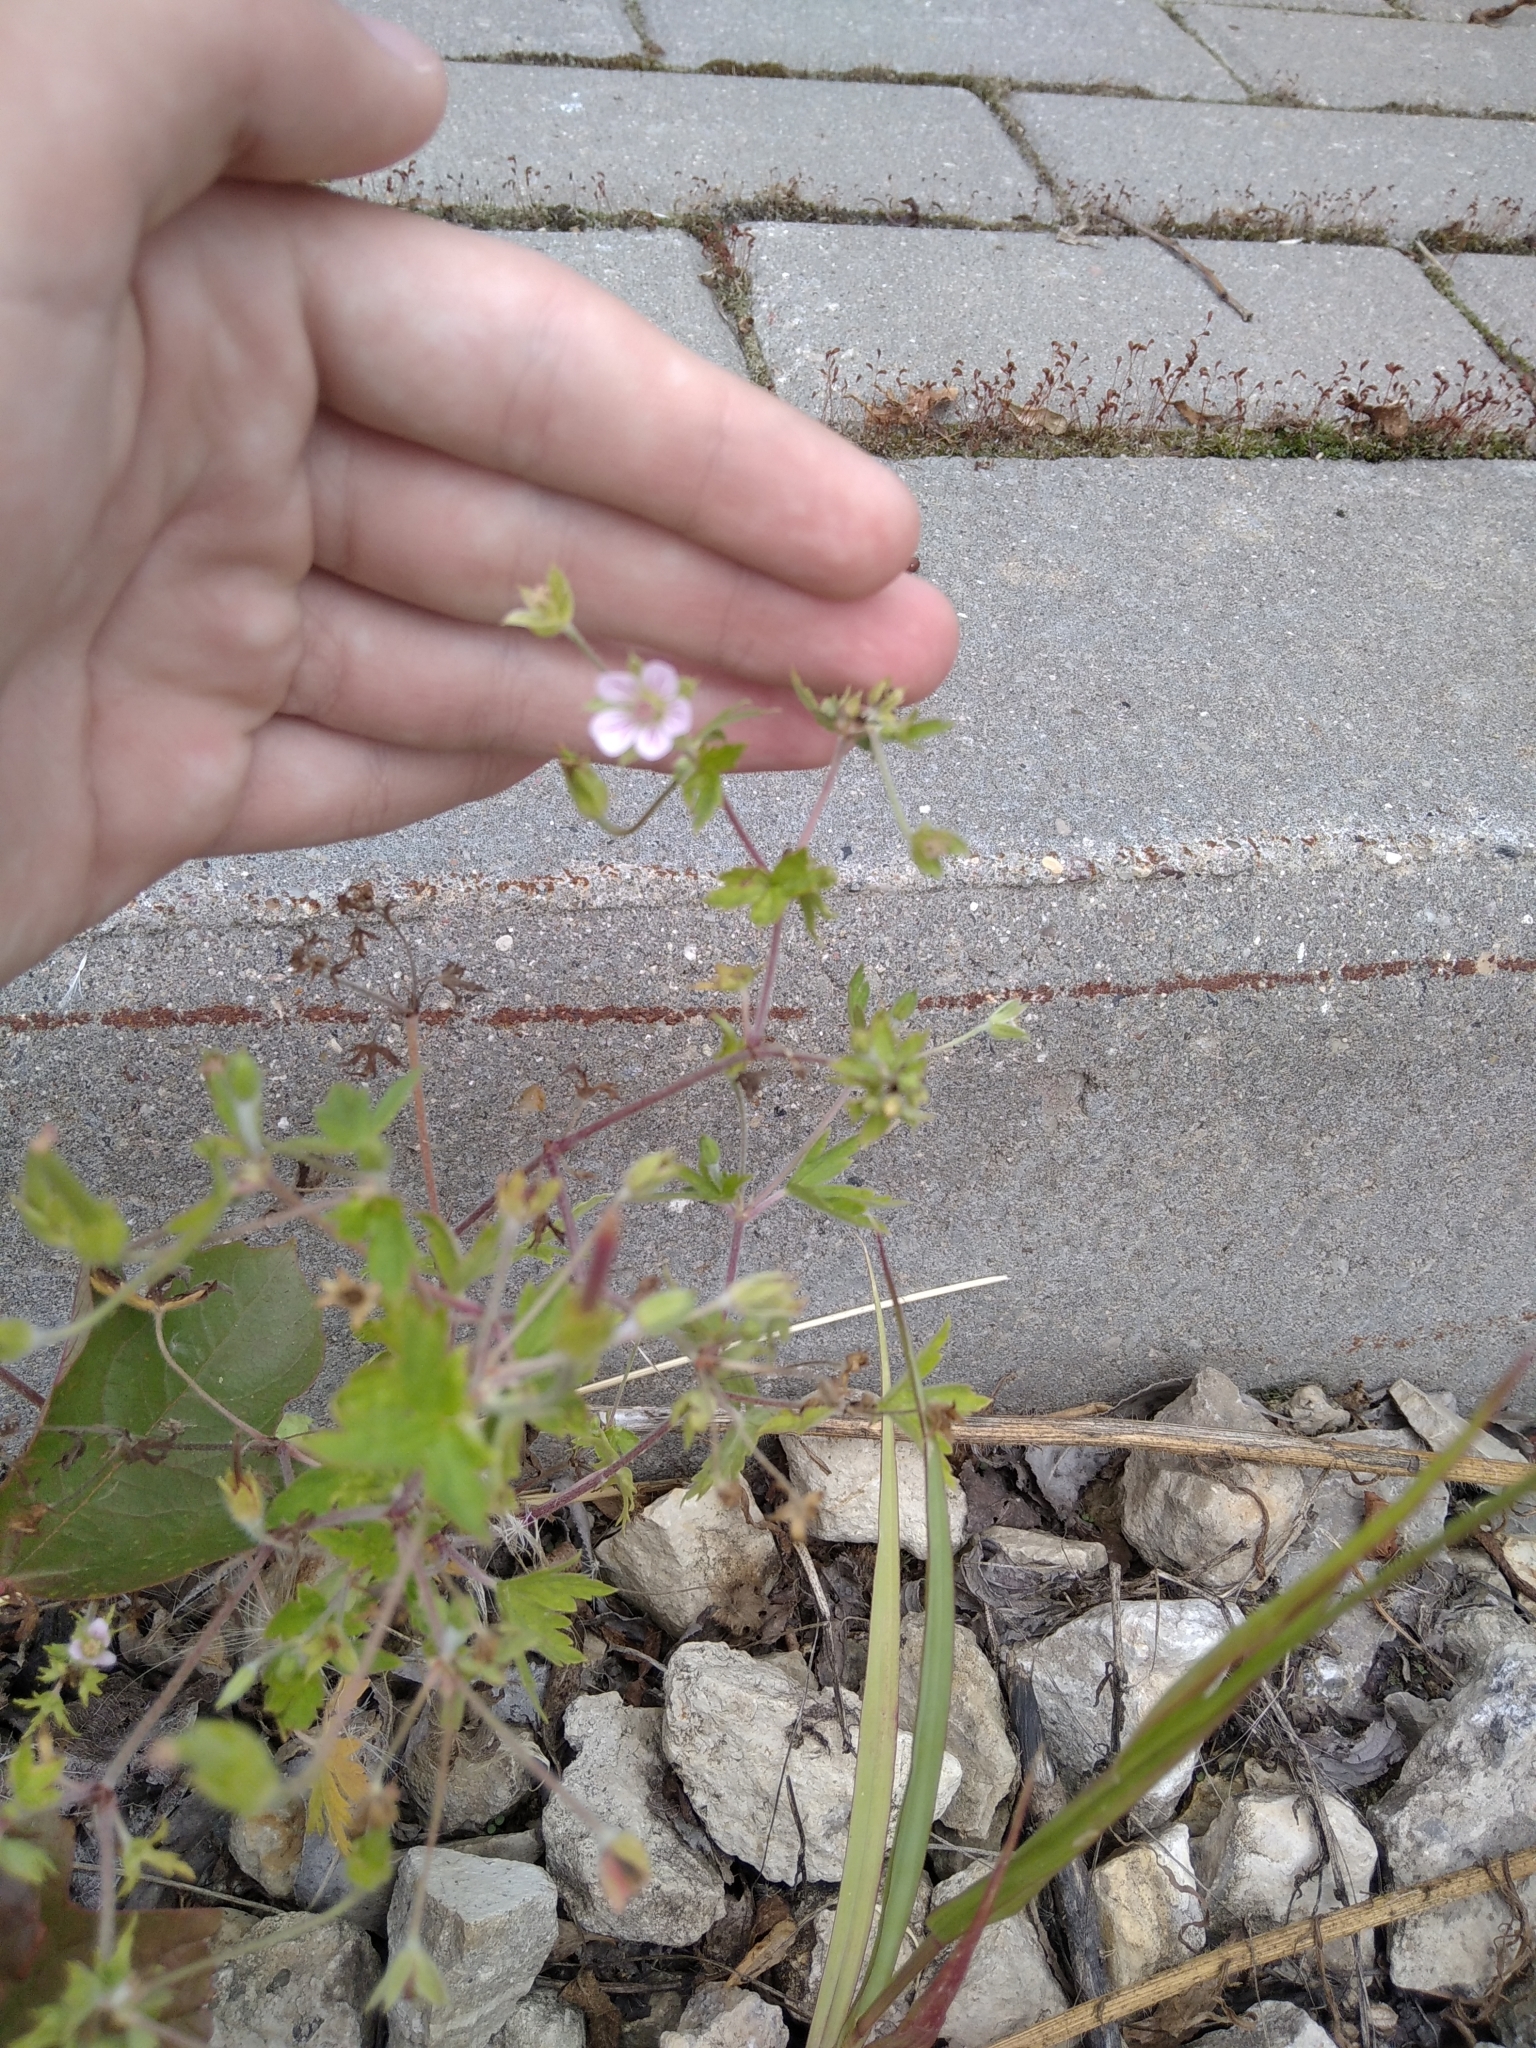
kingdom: Plantae
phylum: Tracheophyta
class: Magnoliopsida
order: Geraniales
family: Geraniaceae
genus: Geranium
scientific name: Geranium sibiricum
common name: Siberian crane's-bill
